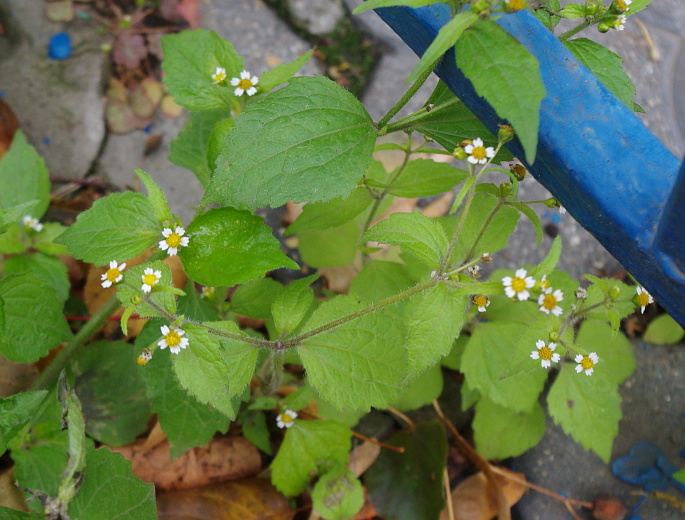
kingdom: Plantae
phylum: Tracheophyta
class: Magnoliopsida
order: Asterales
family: Asteraceae
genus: Galinsoga
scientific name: Galinsoga quadriradiata
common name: Shaggy soldier
